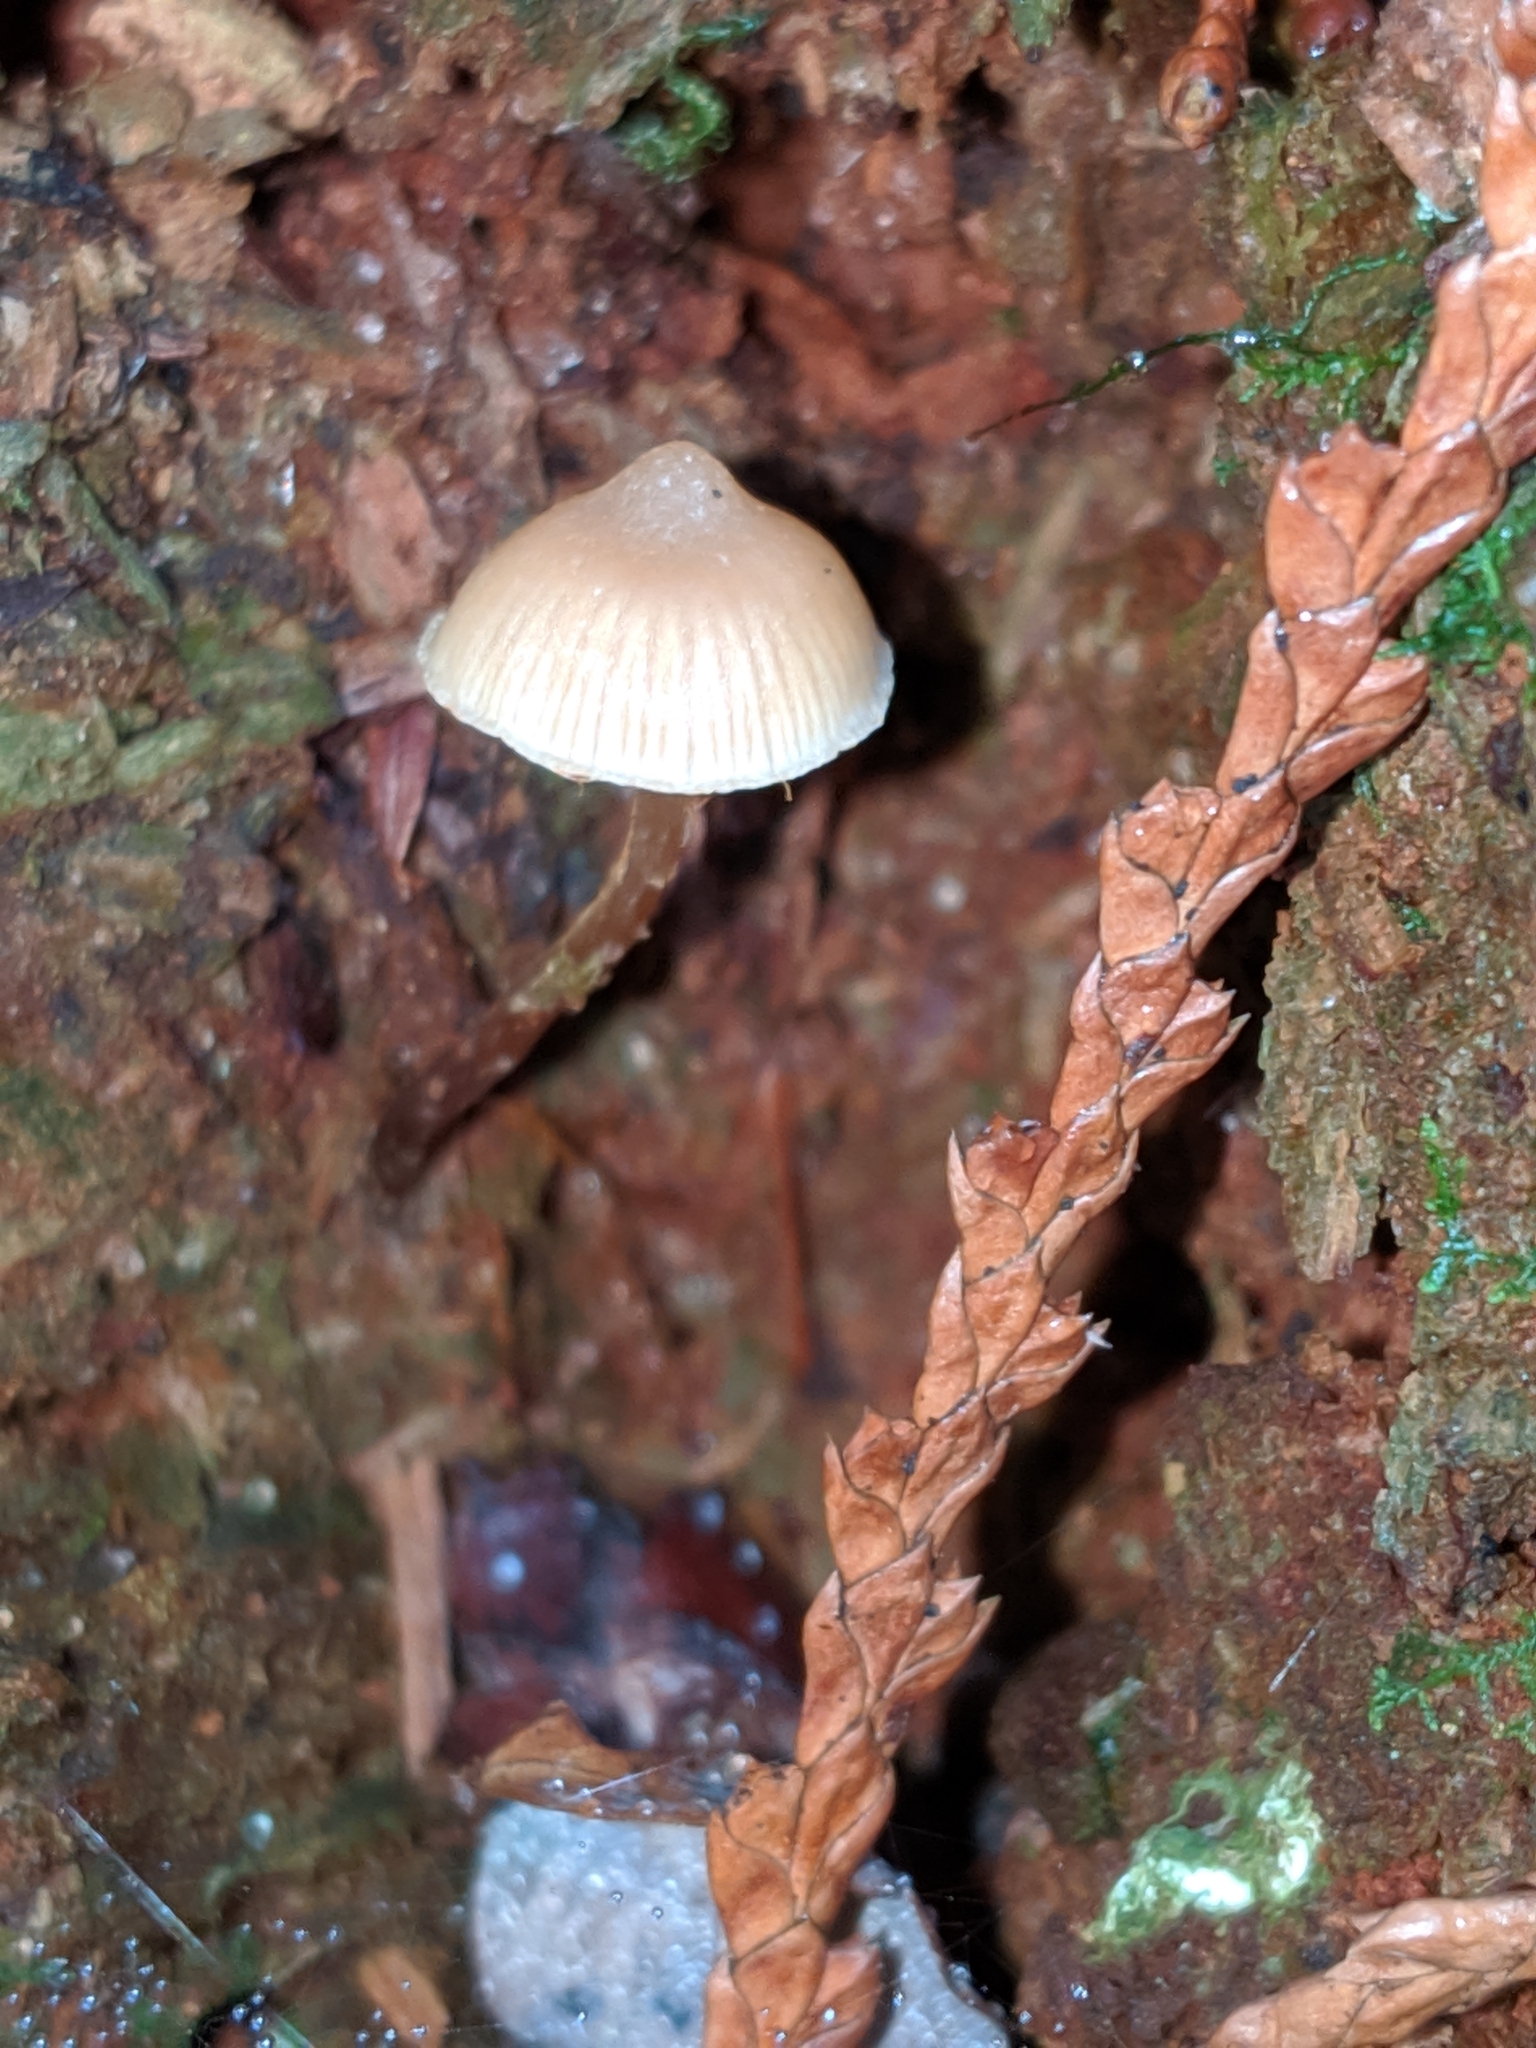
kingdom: Fungi
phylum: Basidiomycota
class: Agaricomycetes
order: Agaricales
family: Mycenaceae
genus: Mycena
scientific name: Mycena galericulata
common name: Bonnet mycena
